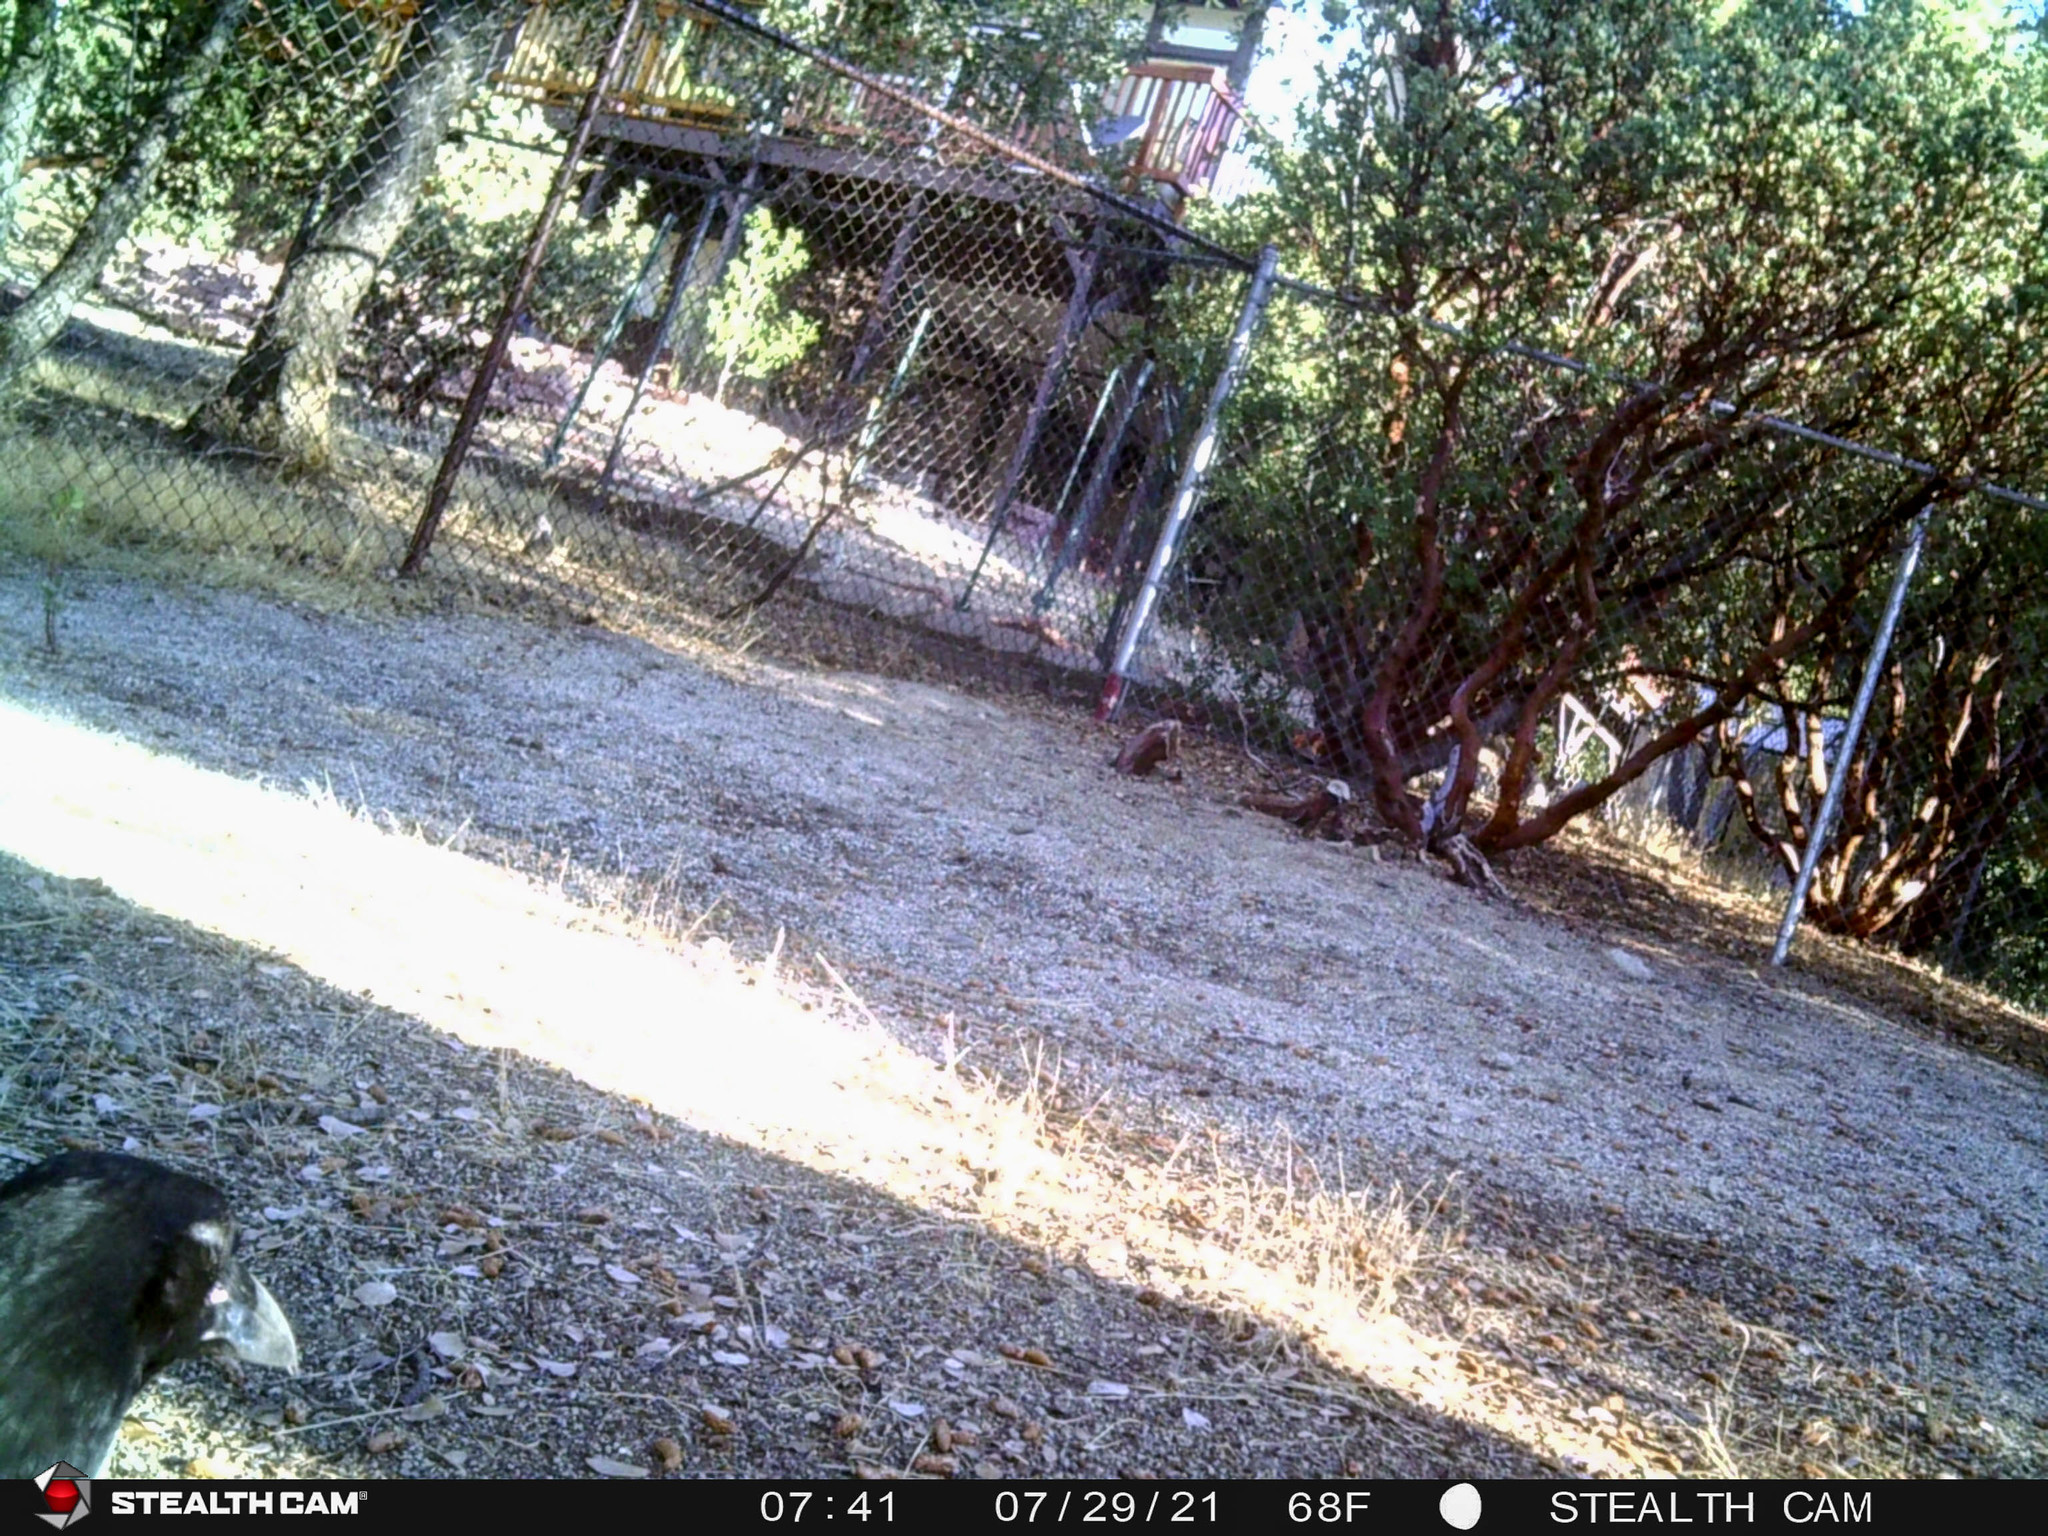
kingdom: Animalia
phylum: Chordata
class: Aves
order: Passeriformes
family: Corvidae
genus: Corvus
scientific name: Corvus corax
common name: Common raven
